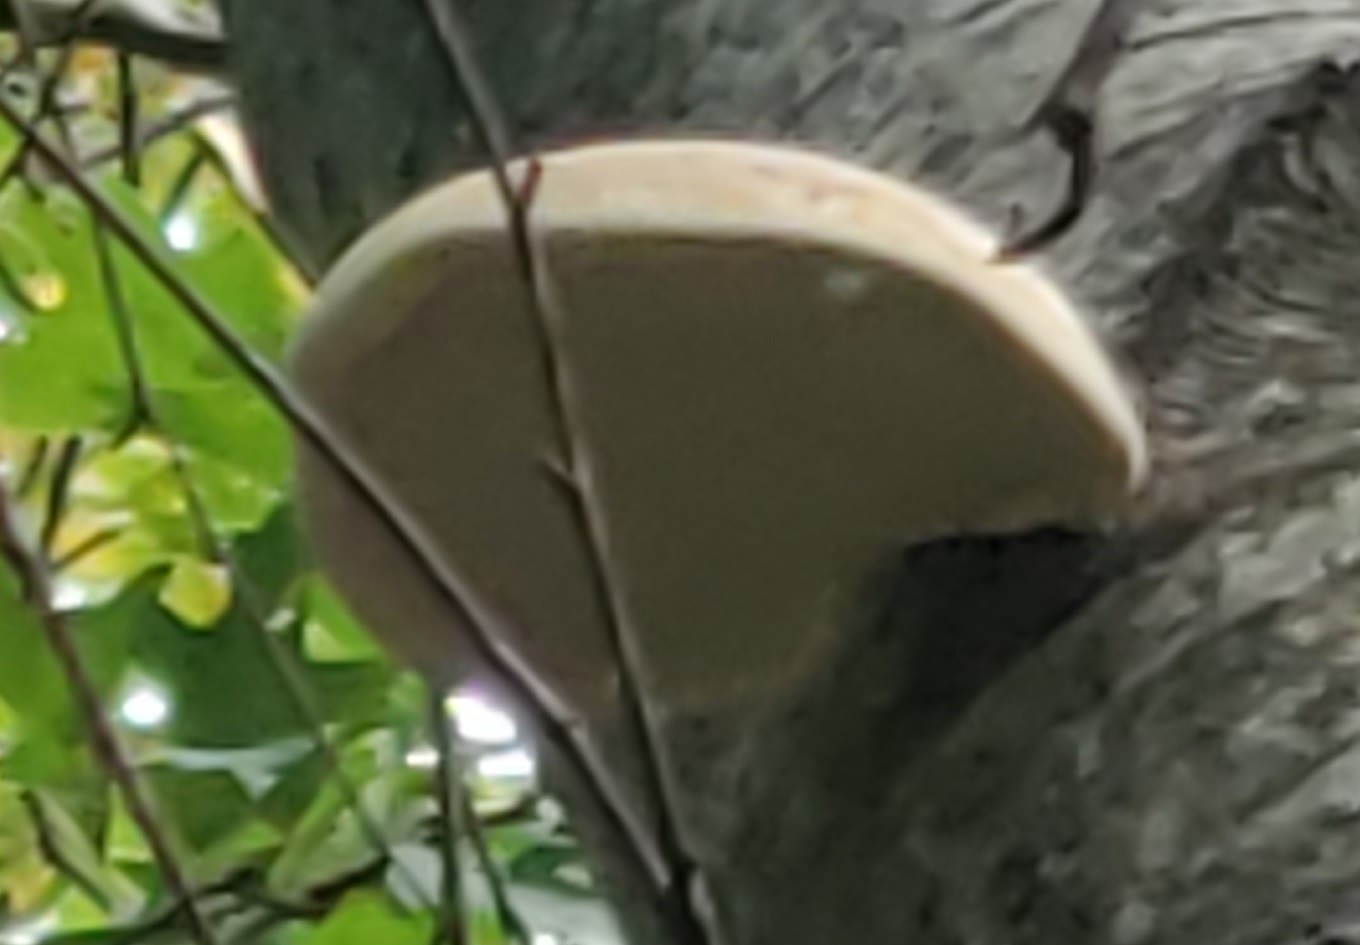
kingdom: Fungi
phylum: Basidiomycota
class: Agaricomycetes
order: Polyporales
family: Fomitopsidaceae
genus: Fomitopsis
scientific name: Fomitopsis betulina
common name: Birch polypore
